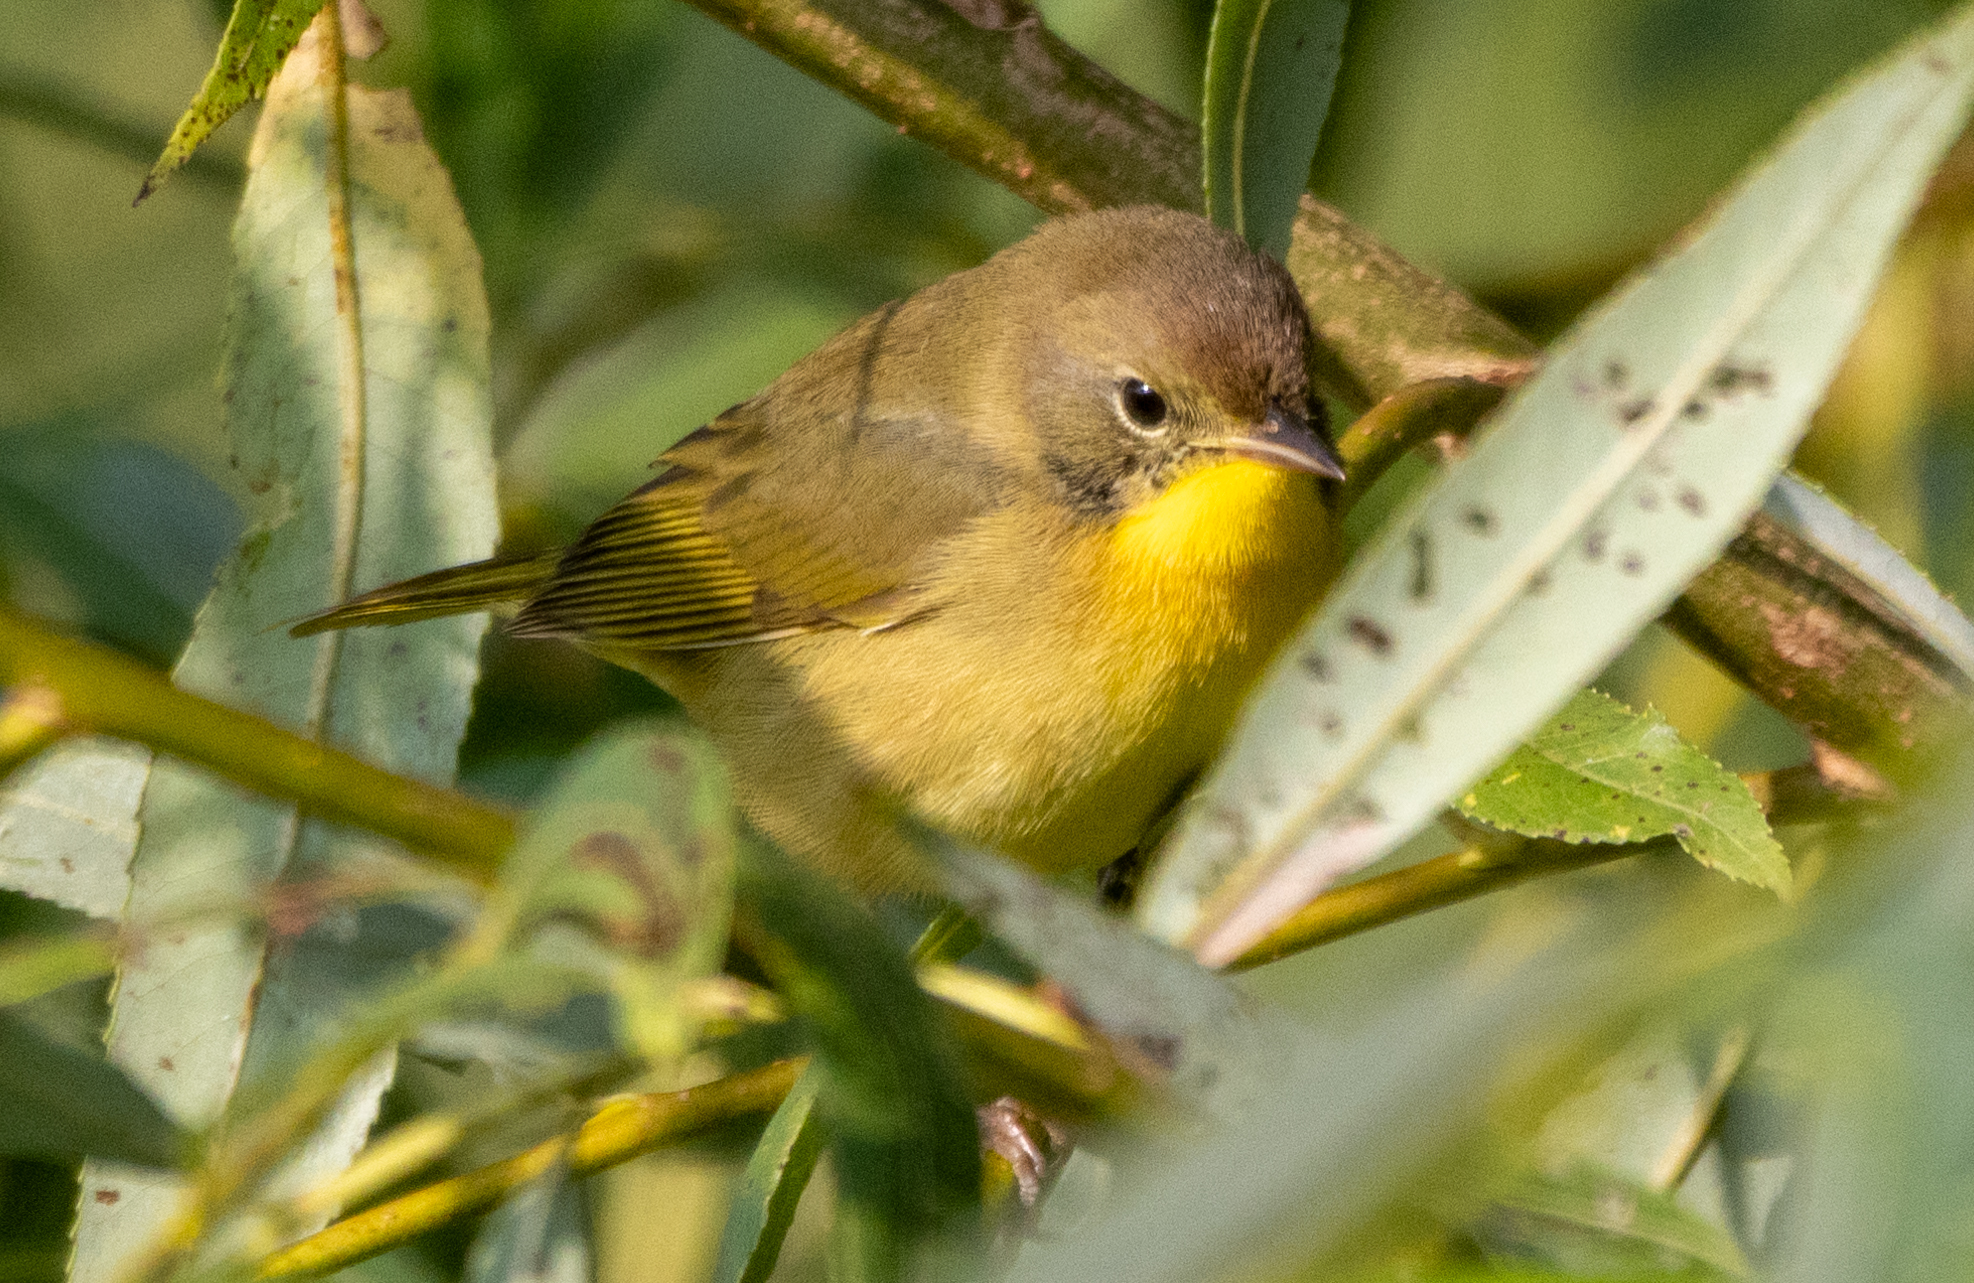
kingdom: Animalia
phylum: Chordata
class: Aves
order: Passeriformes
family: Parulidae
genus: Geothlypis
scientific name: Geothlypis trichas
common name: Common yellowthroat
